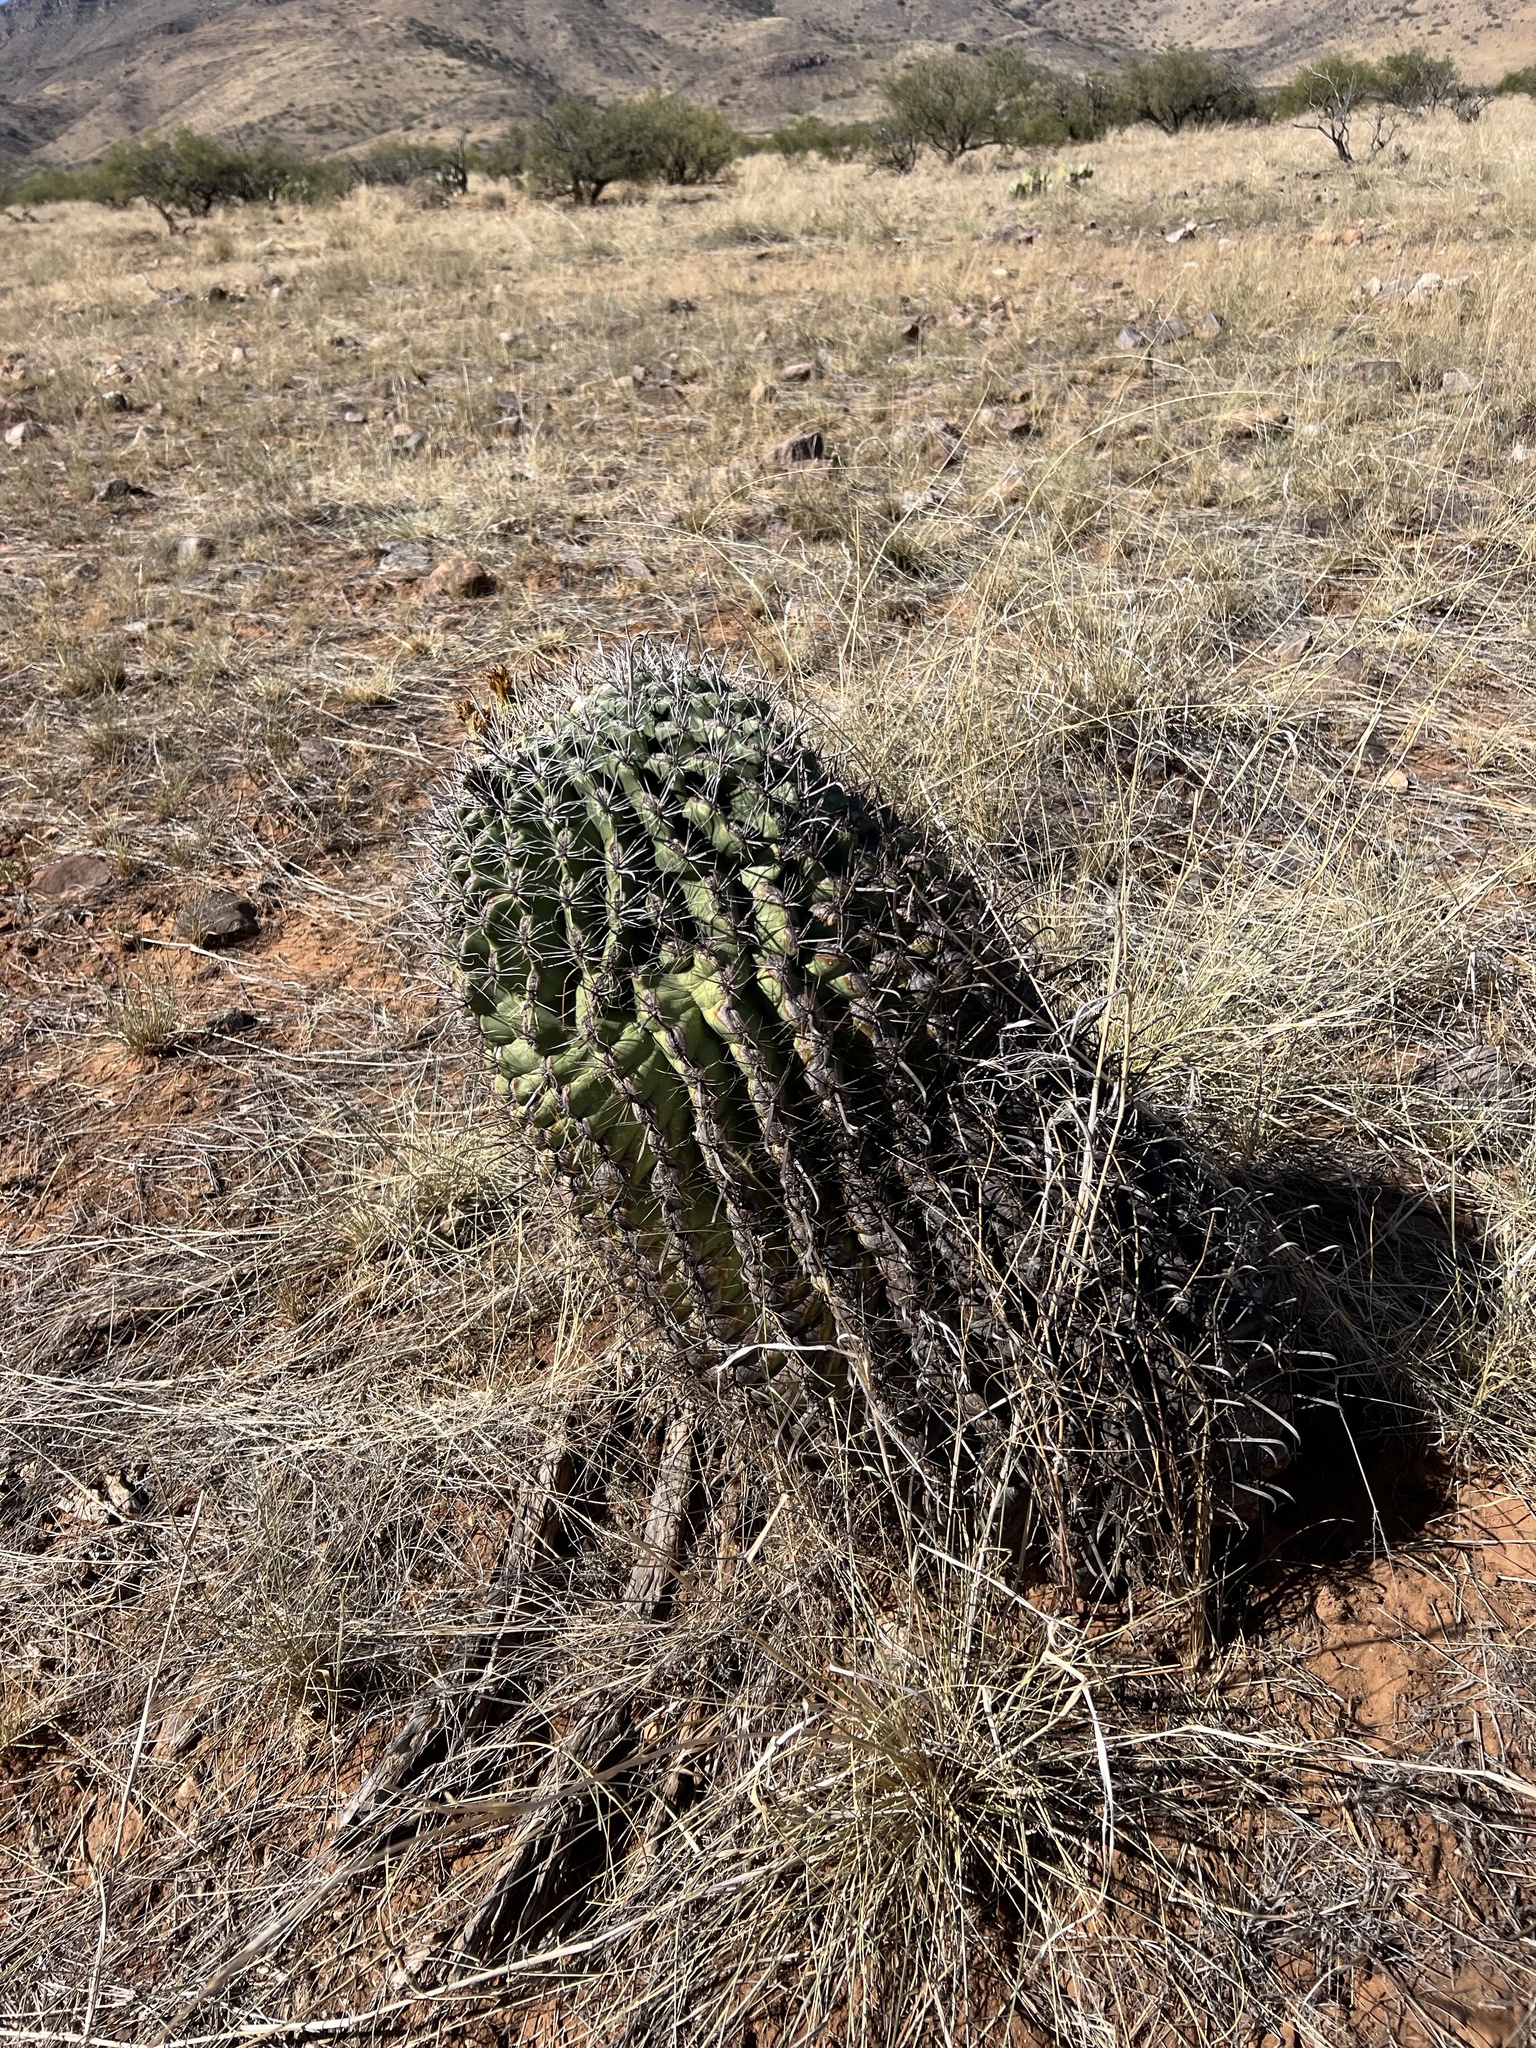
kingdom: Plantae
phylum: Tracheophyta
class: Magnoliopsida
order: Caryophyllales
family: Cactaceae
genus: Ferocactus
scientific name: Ferocactus wislizeni
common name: Candy barrel cactus
